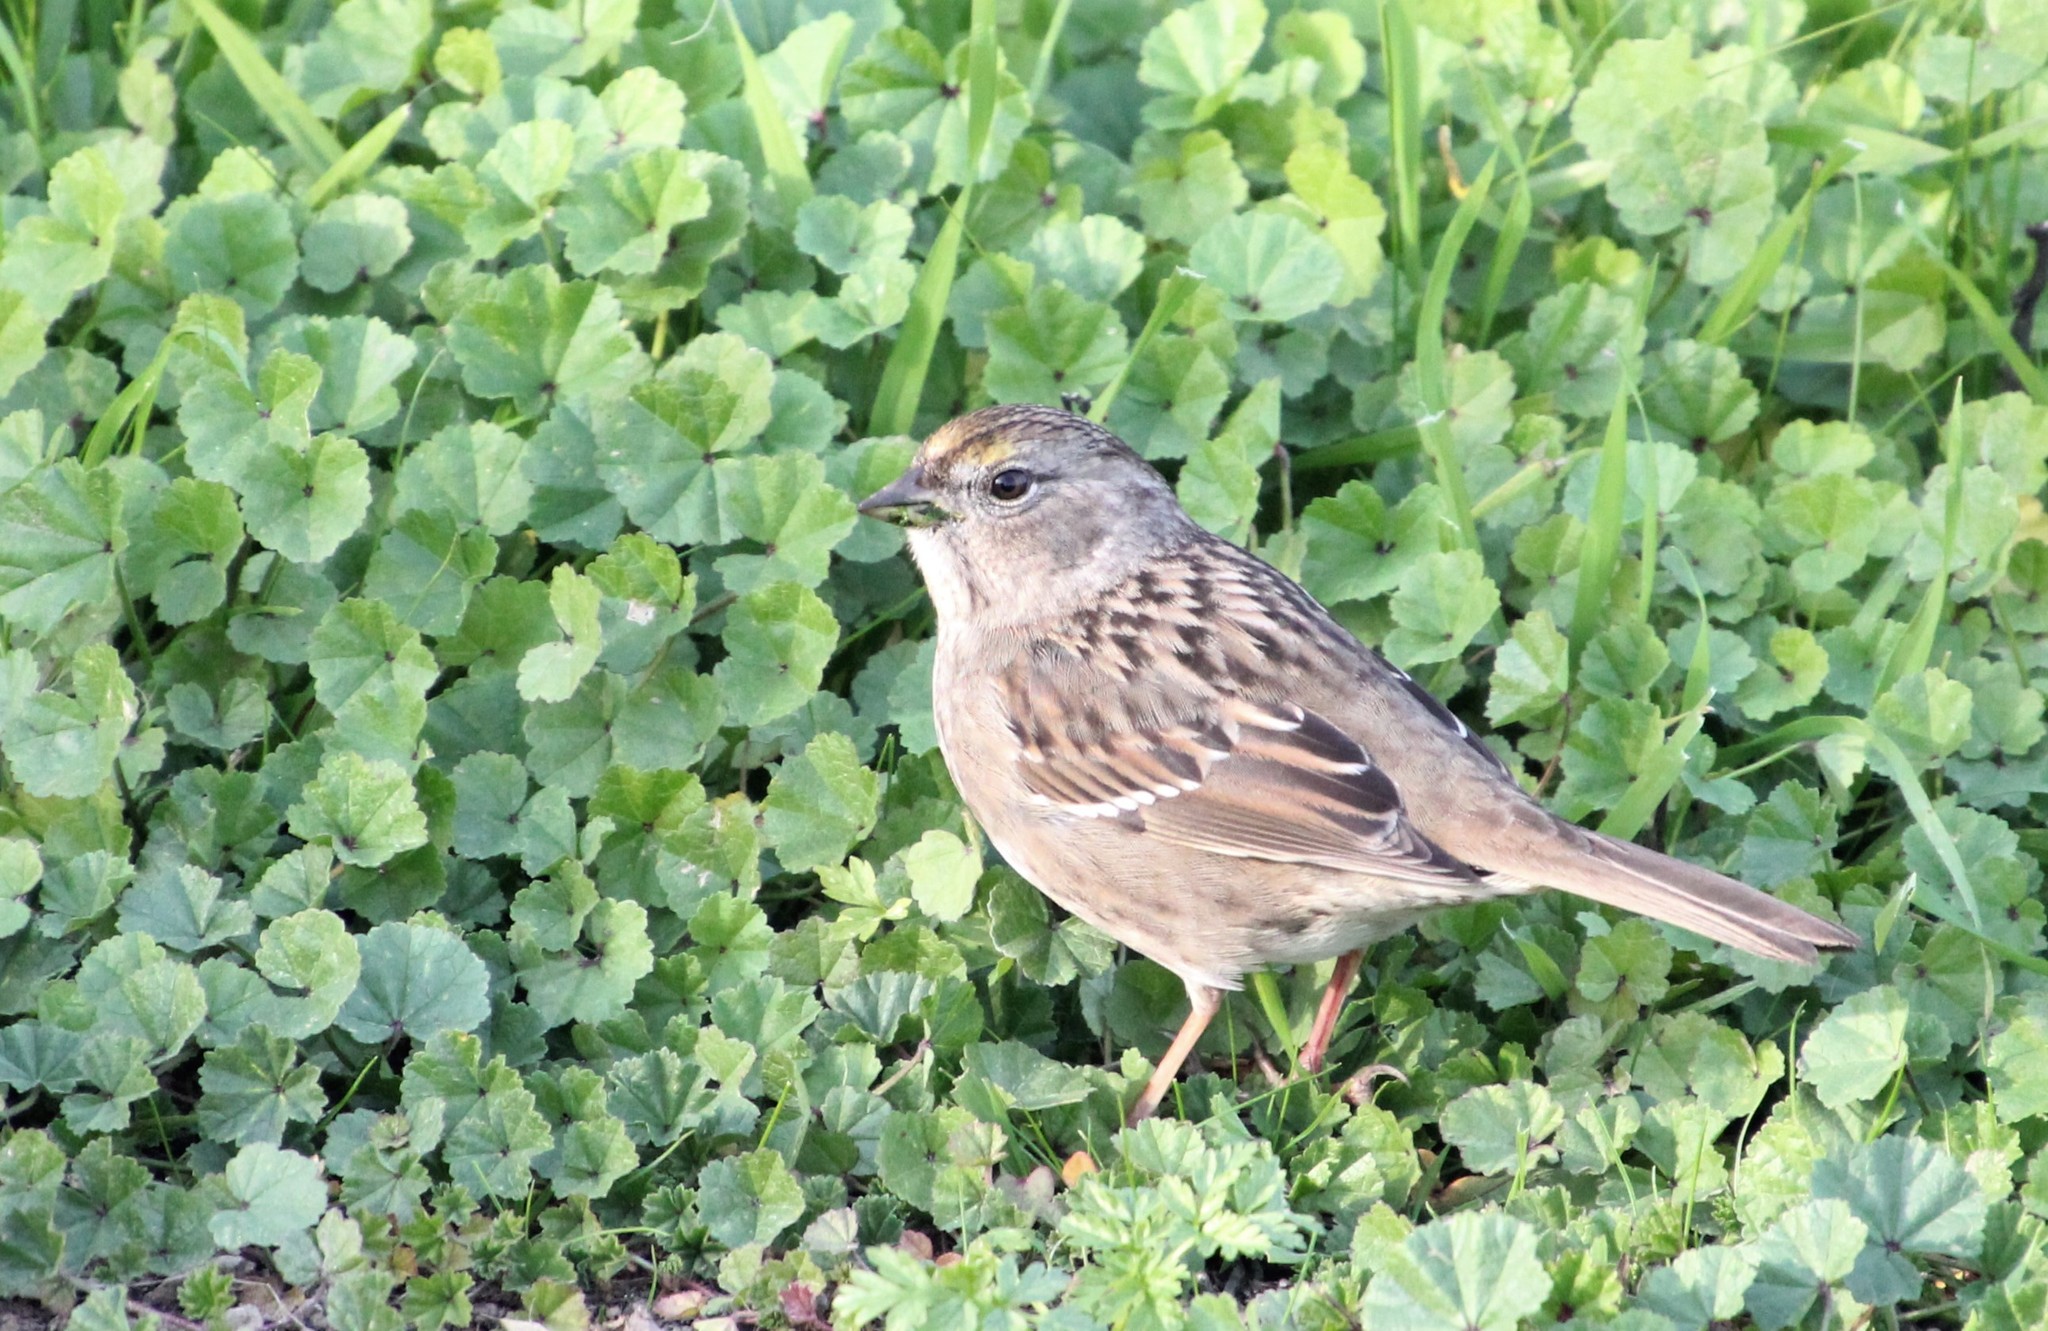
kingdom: Animalia
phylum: Chordata
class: Aves
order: Passeriformes
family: Passerellidae
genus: Zonotrichia
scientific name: Zonotrichia atricapilla
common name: Golden-crowned sparrow
